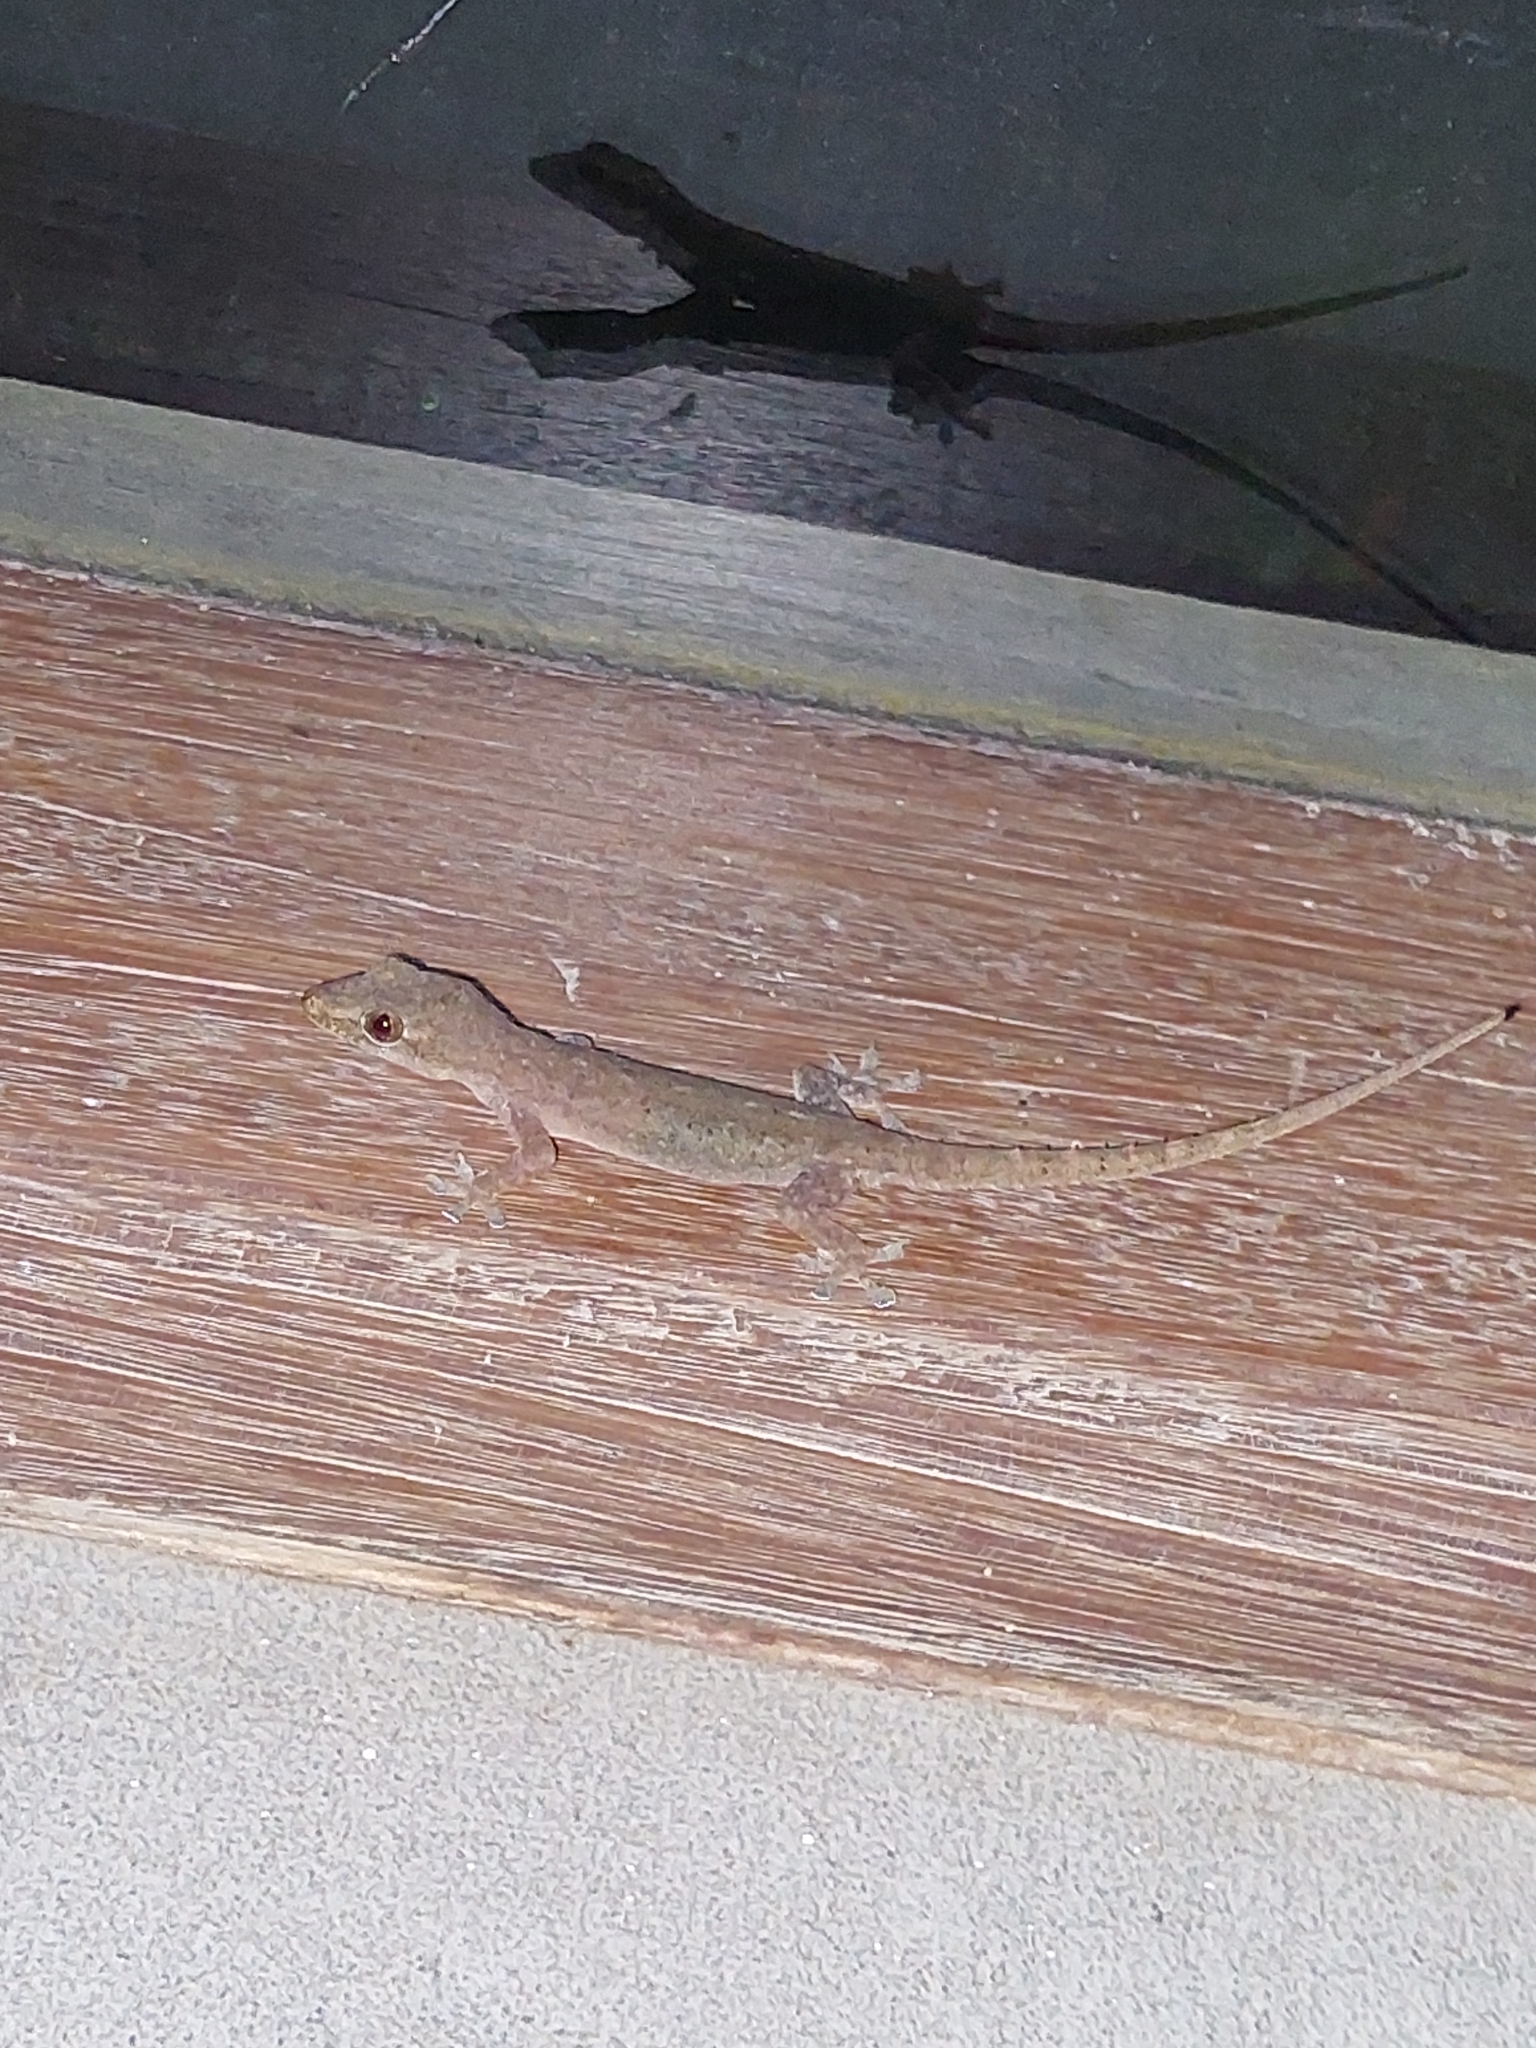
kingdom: Animalia
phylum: Chordata
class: Squamata
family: Gekkonidae
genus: Hemidactylus
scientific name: Hemidactylus frenatus
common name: Common house gecko
